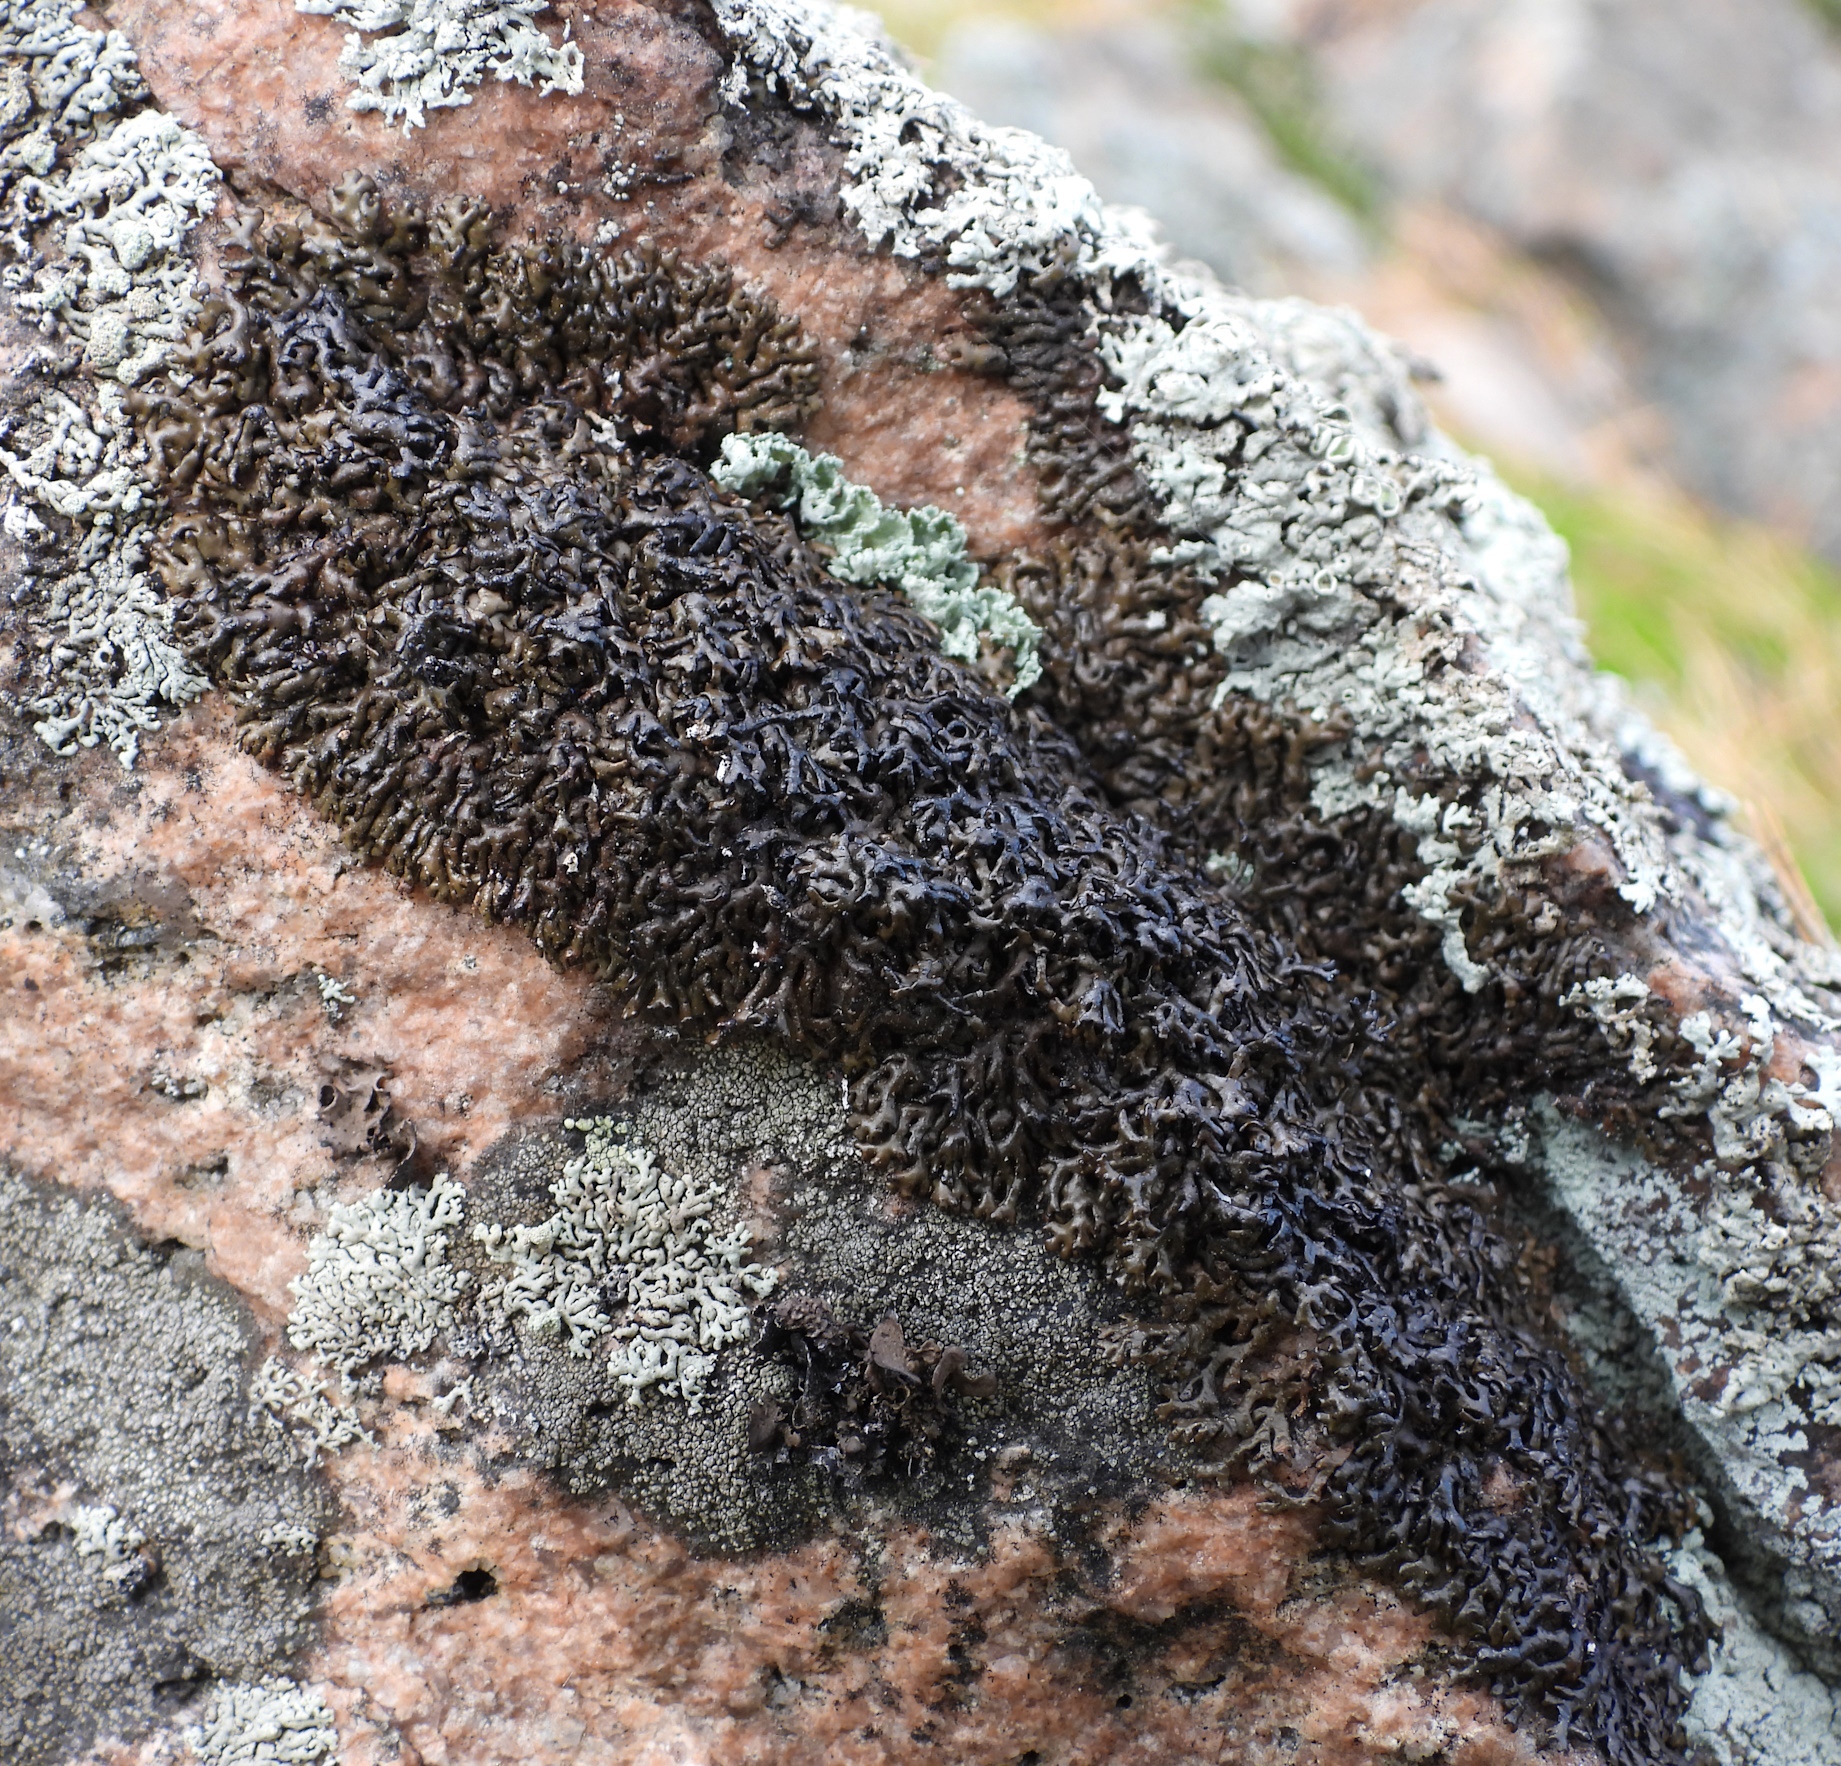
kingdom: Fungi
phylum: Ascomycota
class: Lecanoromycetes
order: Lecanorales
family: Parmeliaceae
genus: Melanelia
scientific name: Melanelia stygia
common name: Alpine camouflage lichen
